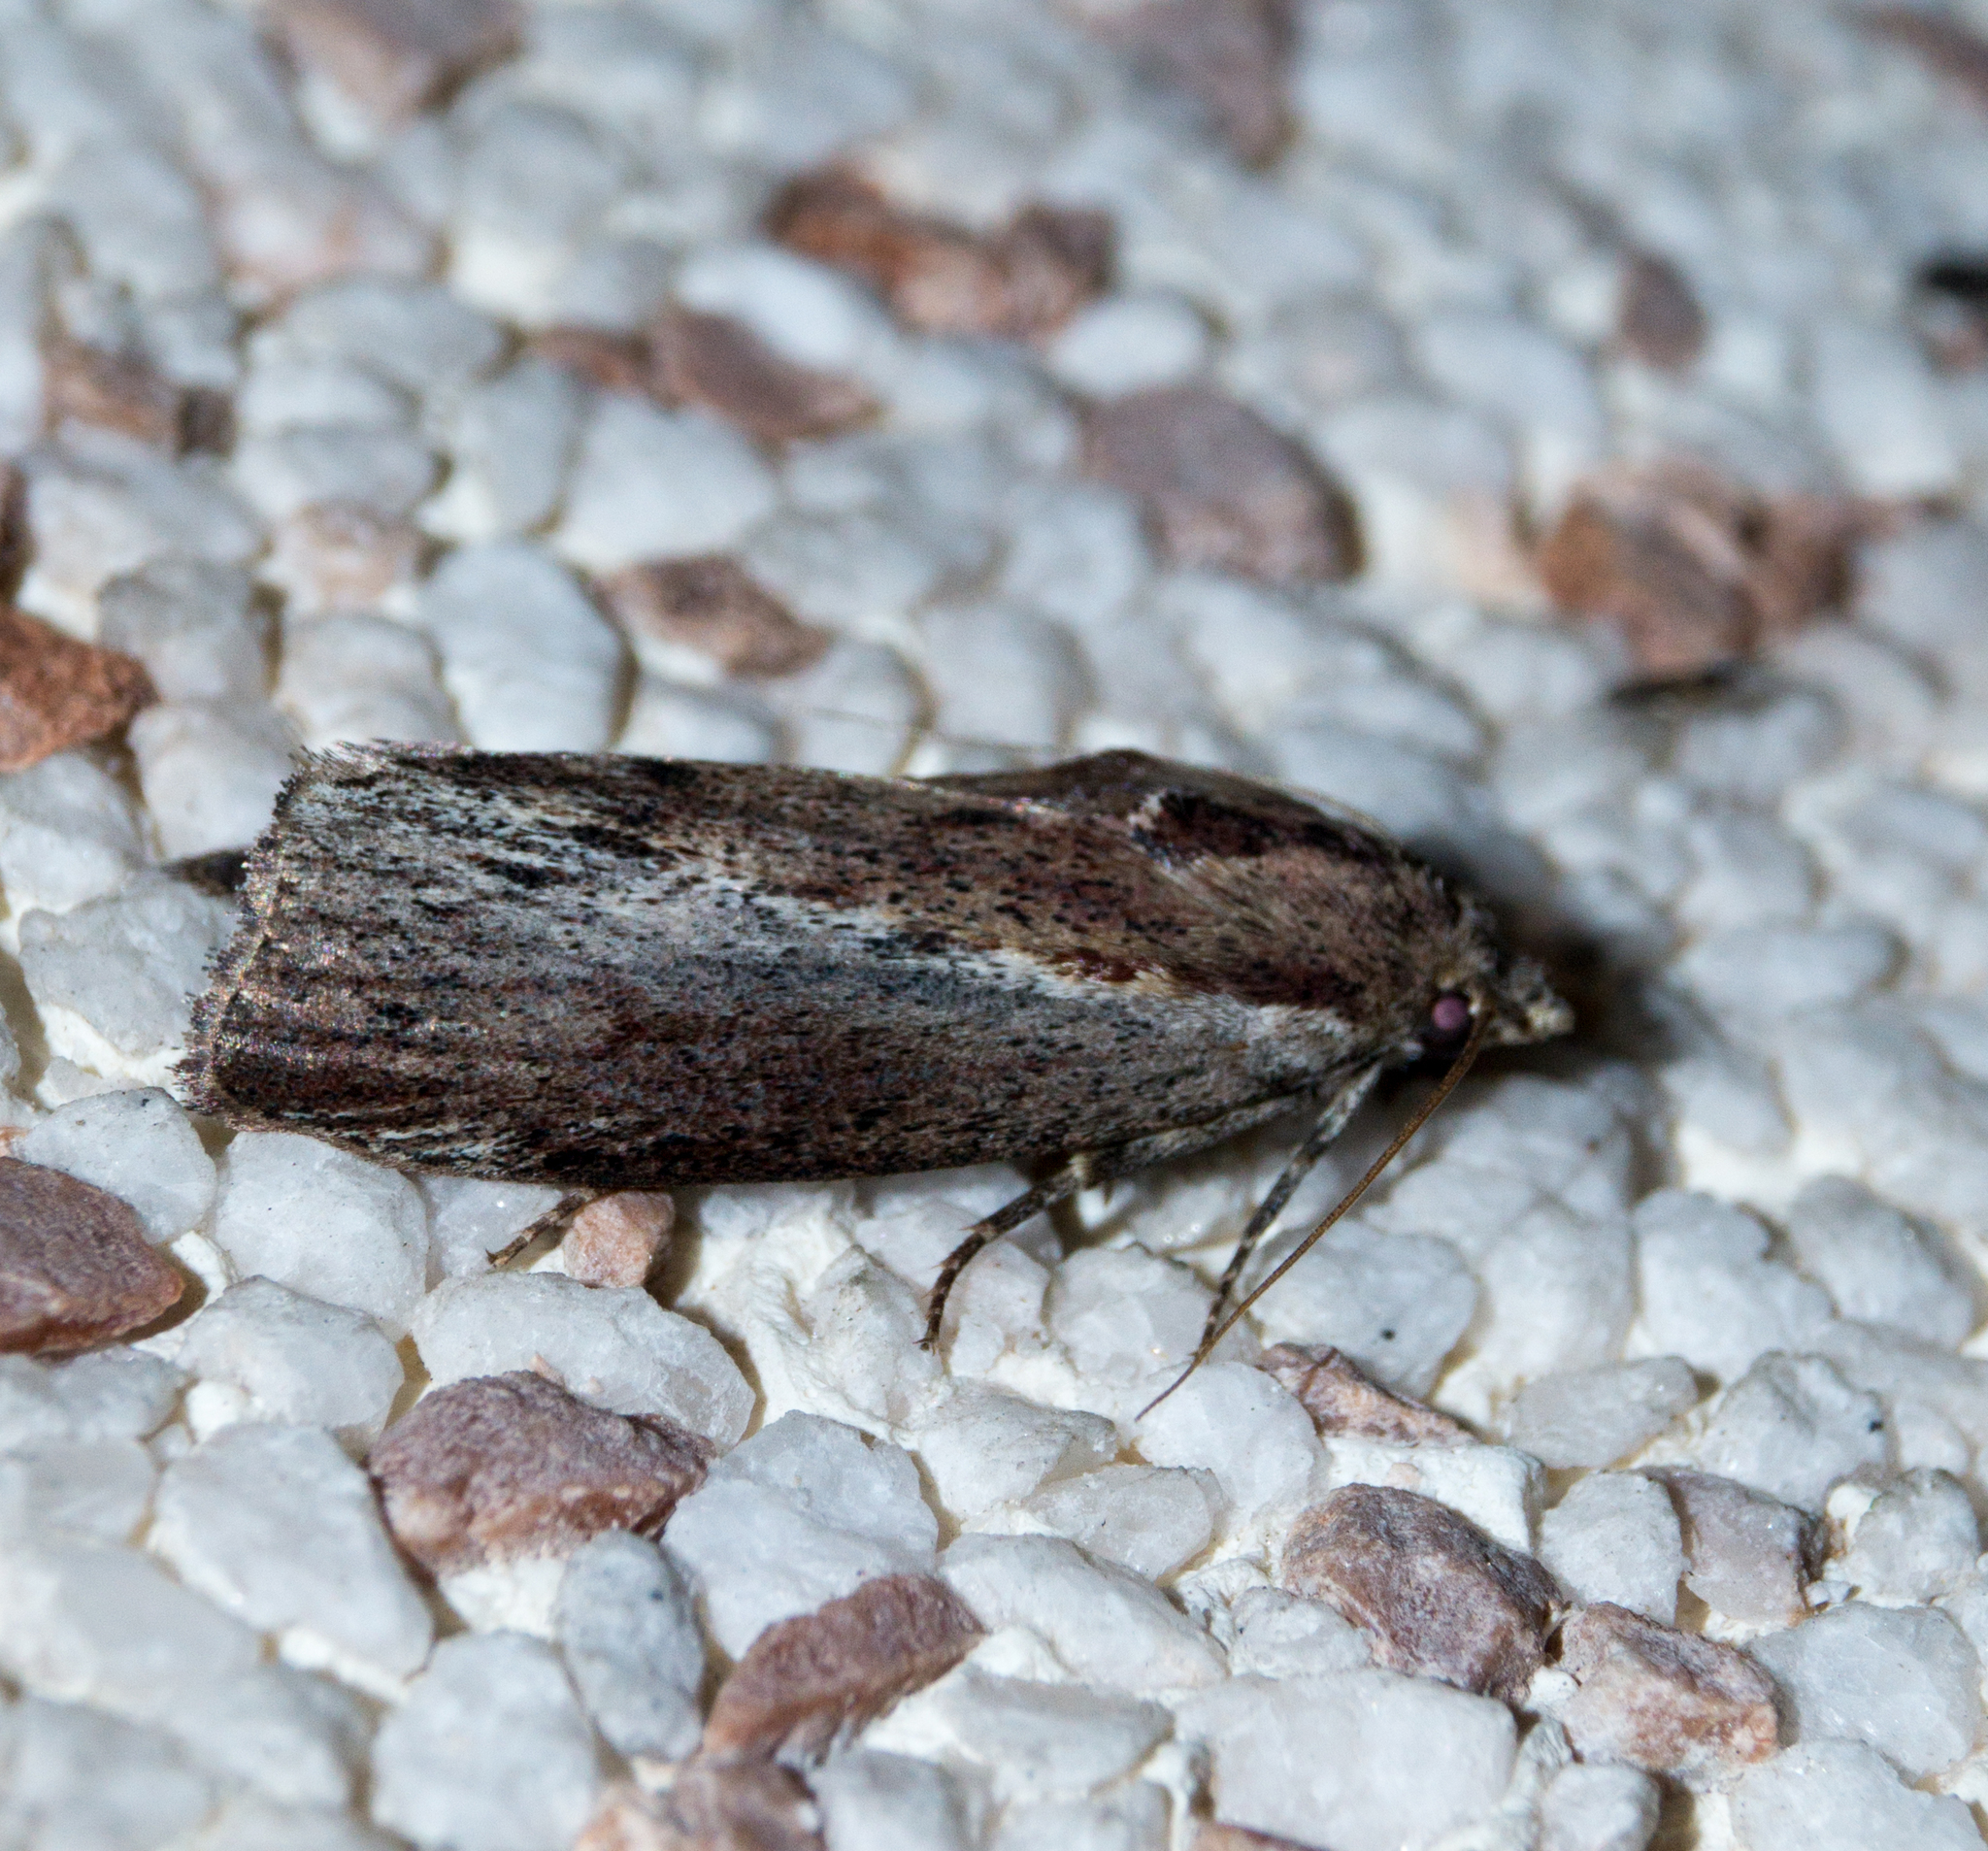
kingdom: Animalia
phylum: Arthropoda
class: Insecta
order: Lepidoptera
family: Pyralidae
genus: Galleria
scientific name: Galleria mellonella
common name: Greater wax moth
